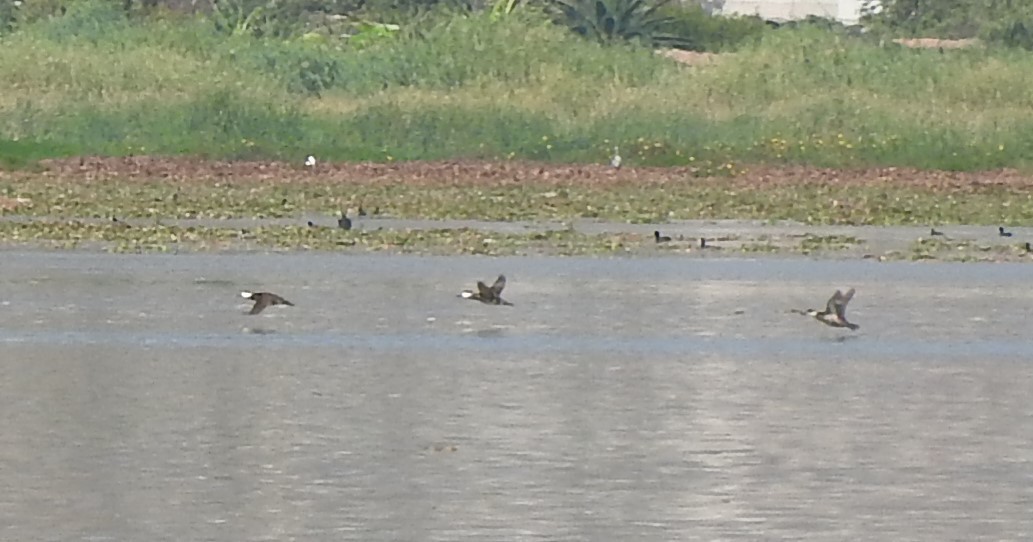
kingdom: Animalia
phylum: Chordata
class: Aves
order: Anseriformes
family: Anatidae
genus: Oxyura
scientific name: Oxyura jamaicensis
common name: Ruddy duck
